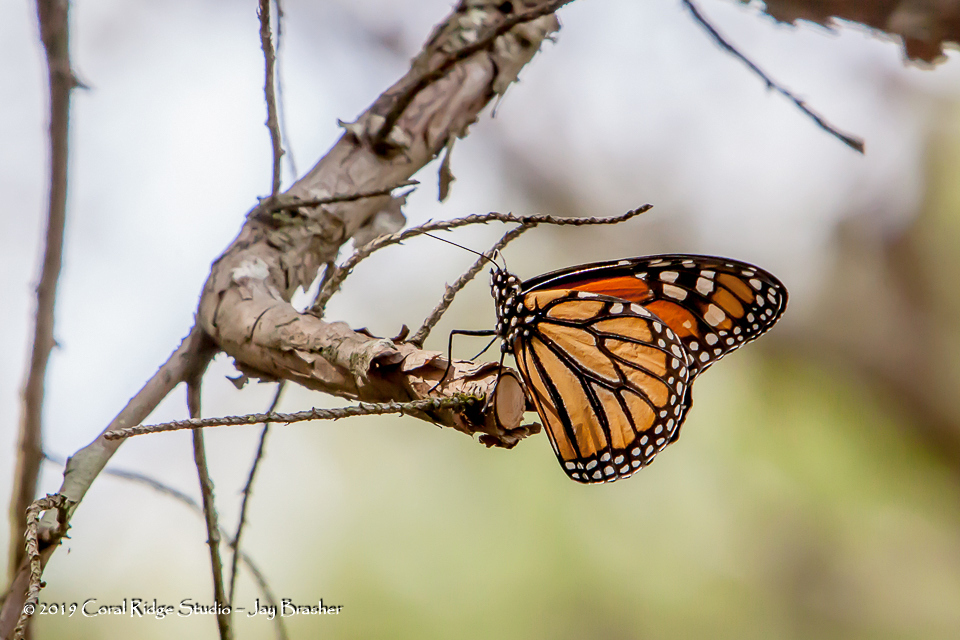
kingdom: Animalia
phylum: Arthropoda
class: Insecta
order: Lepidoptera
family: Nymphalidae
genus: Danaus
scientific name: Danaus plexippus
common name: Monarch
